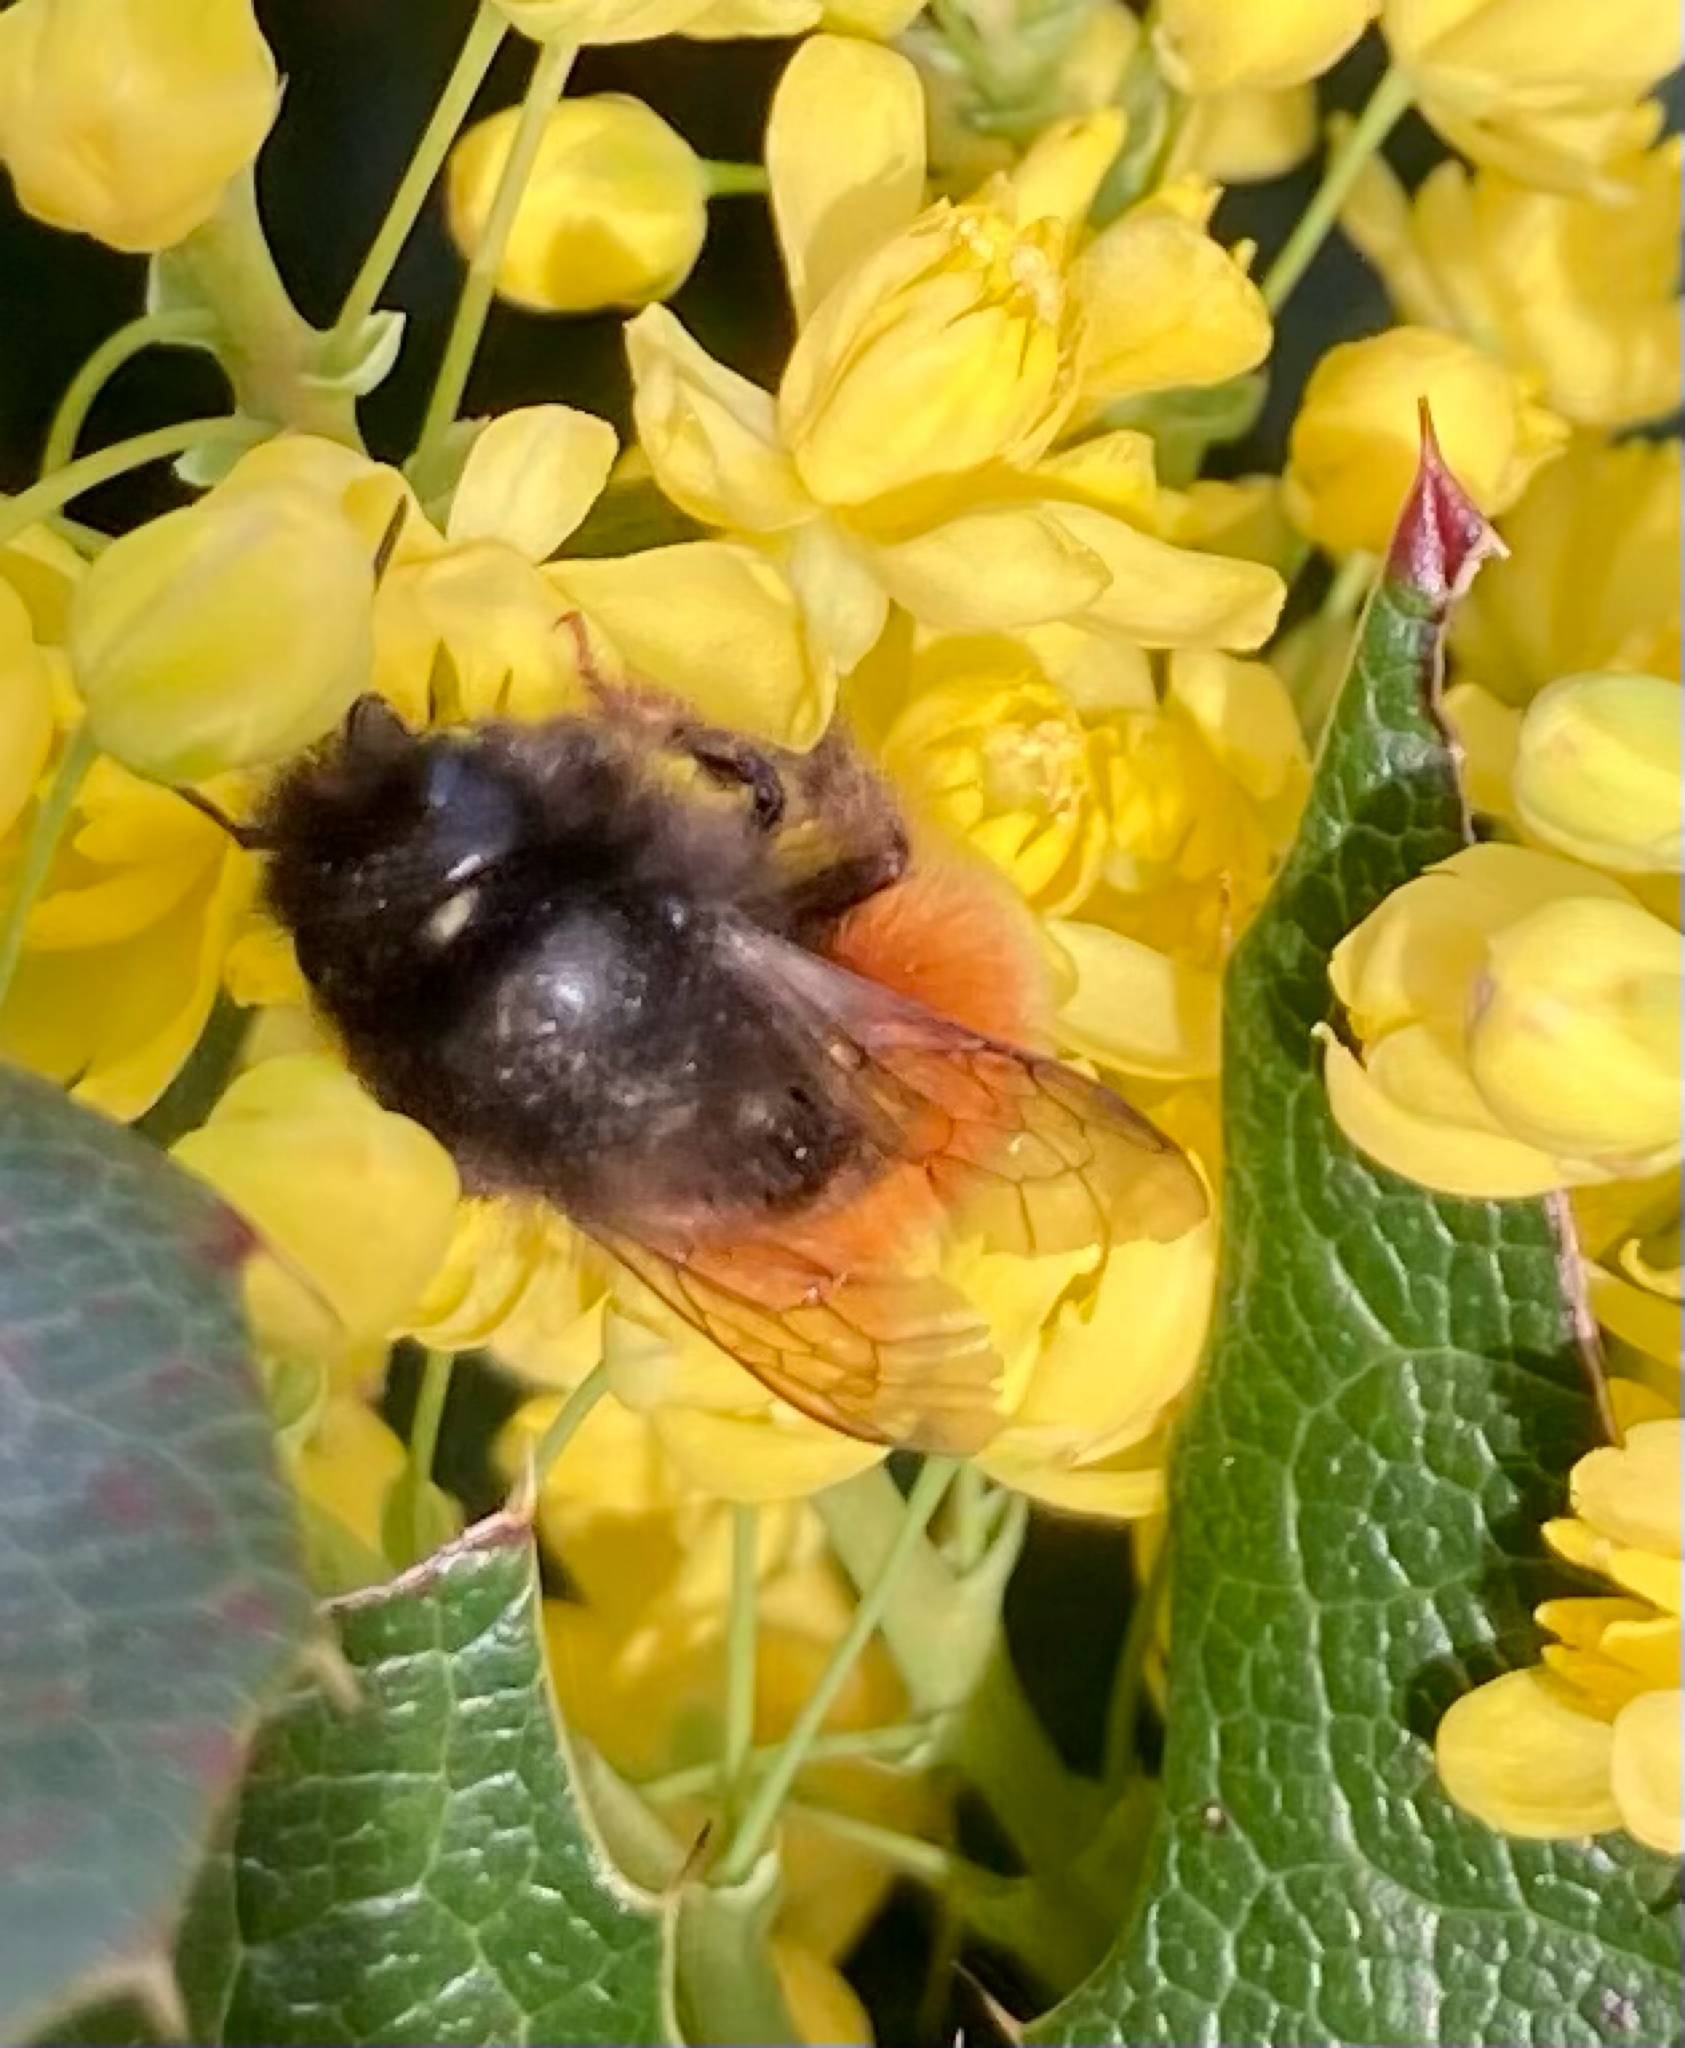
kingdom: Animalia
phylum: Arthropoda
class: Insecta
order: Hymenoptera
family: Megachilidae
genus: Osmia
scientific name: Osmia cornuta
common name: Mason bee
